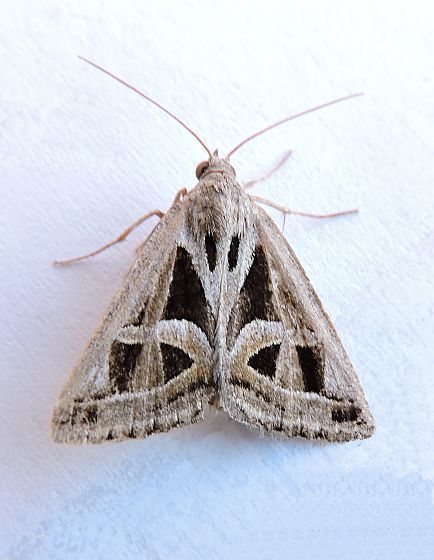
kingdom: Animalia
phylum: Arthropoda
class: Insecta
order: Lepidoptera
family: Erebidae
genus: Callistege
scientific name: Callistege intercalaris
